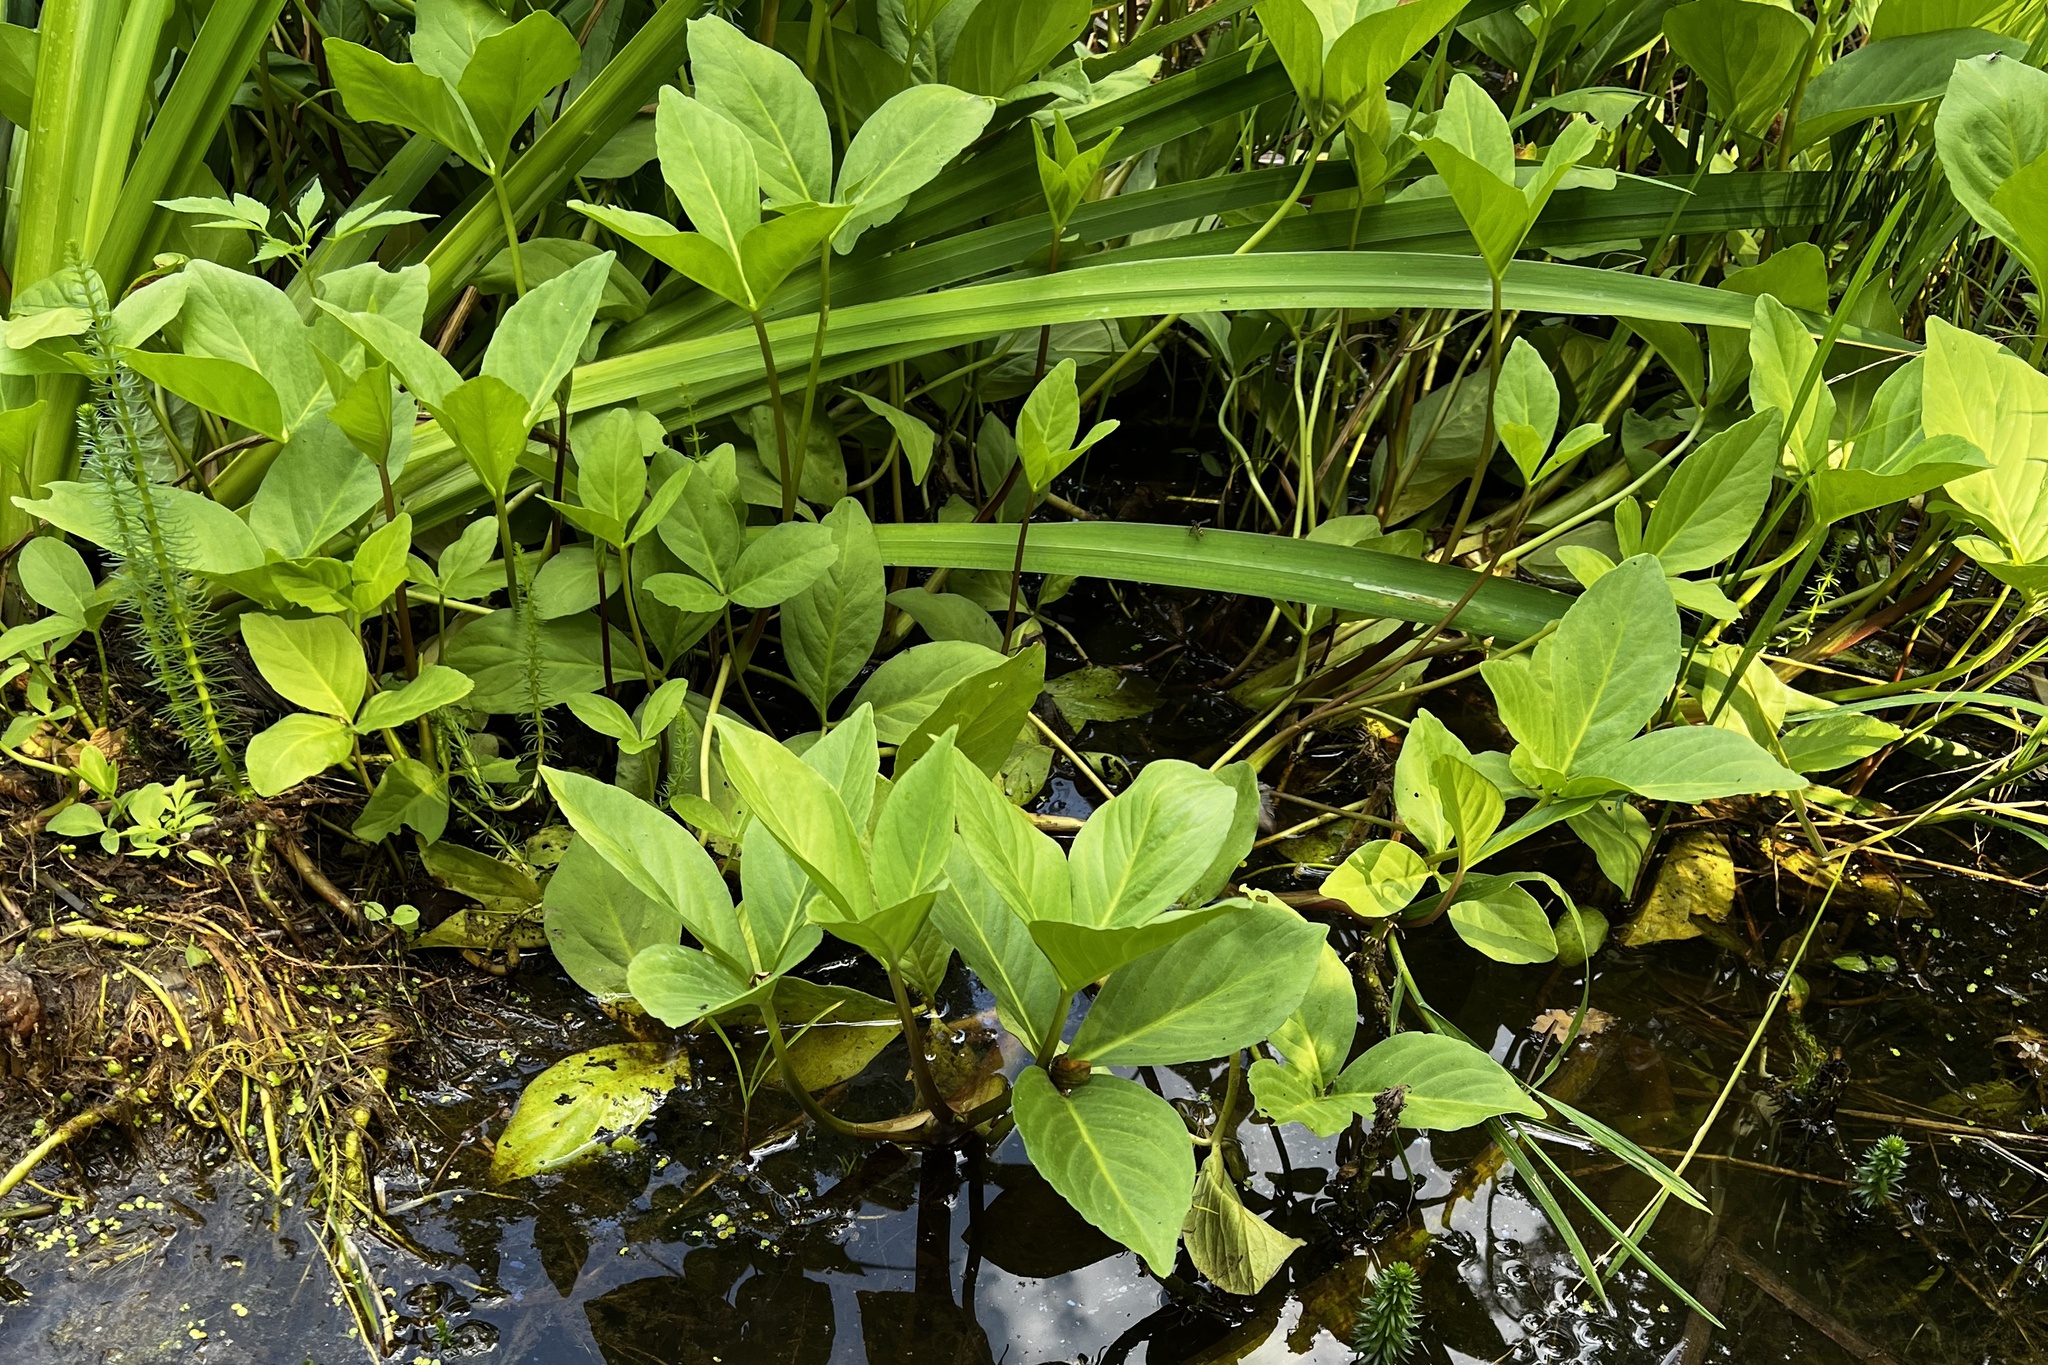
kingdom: Plantae
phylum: Tracheophyta
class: Magnoliopsida
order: Asterales
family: Menyanthaceae
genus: Menyanthes
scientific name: Menyanthes trifoliata
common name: Bogbean
